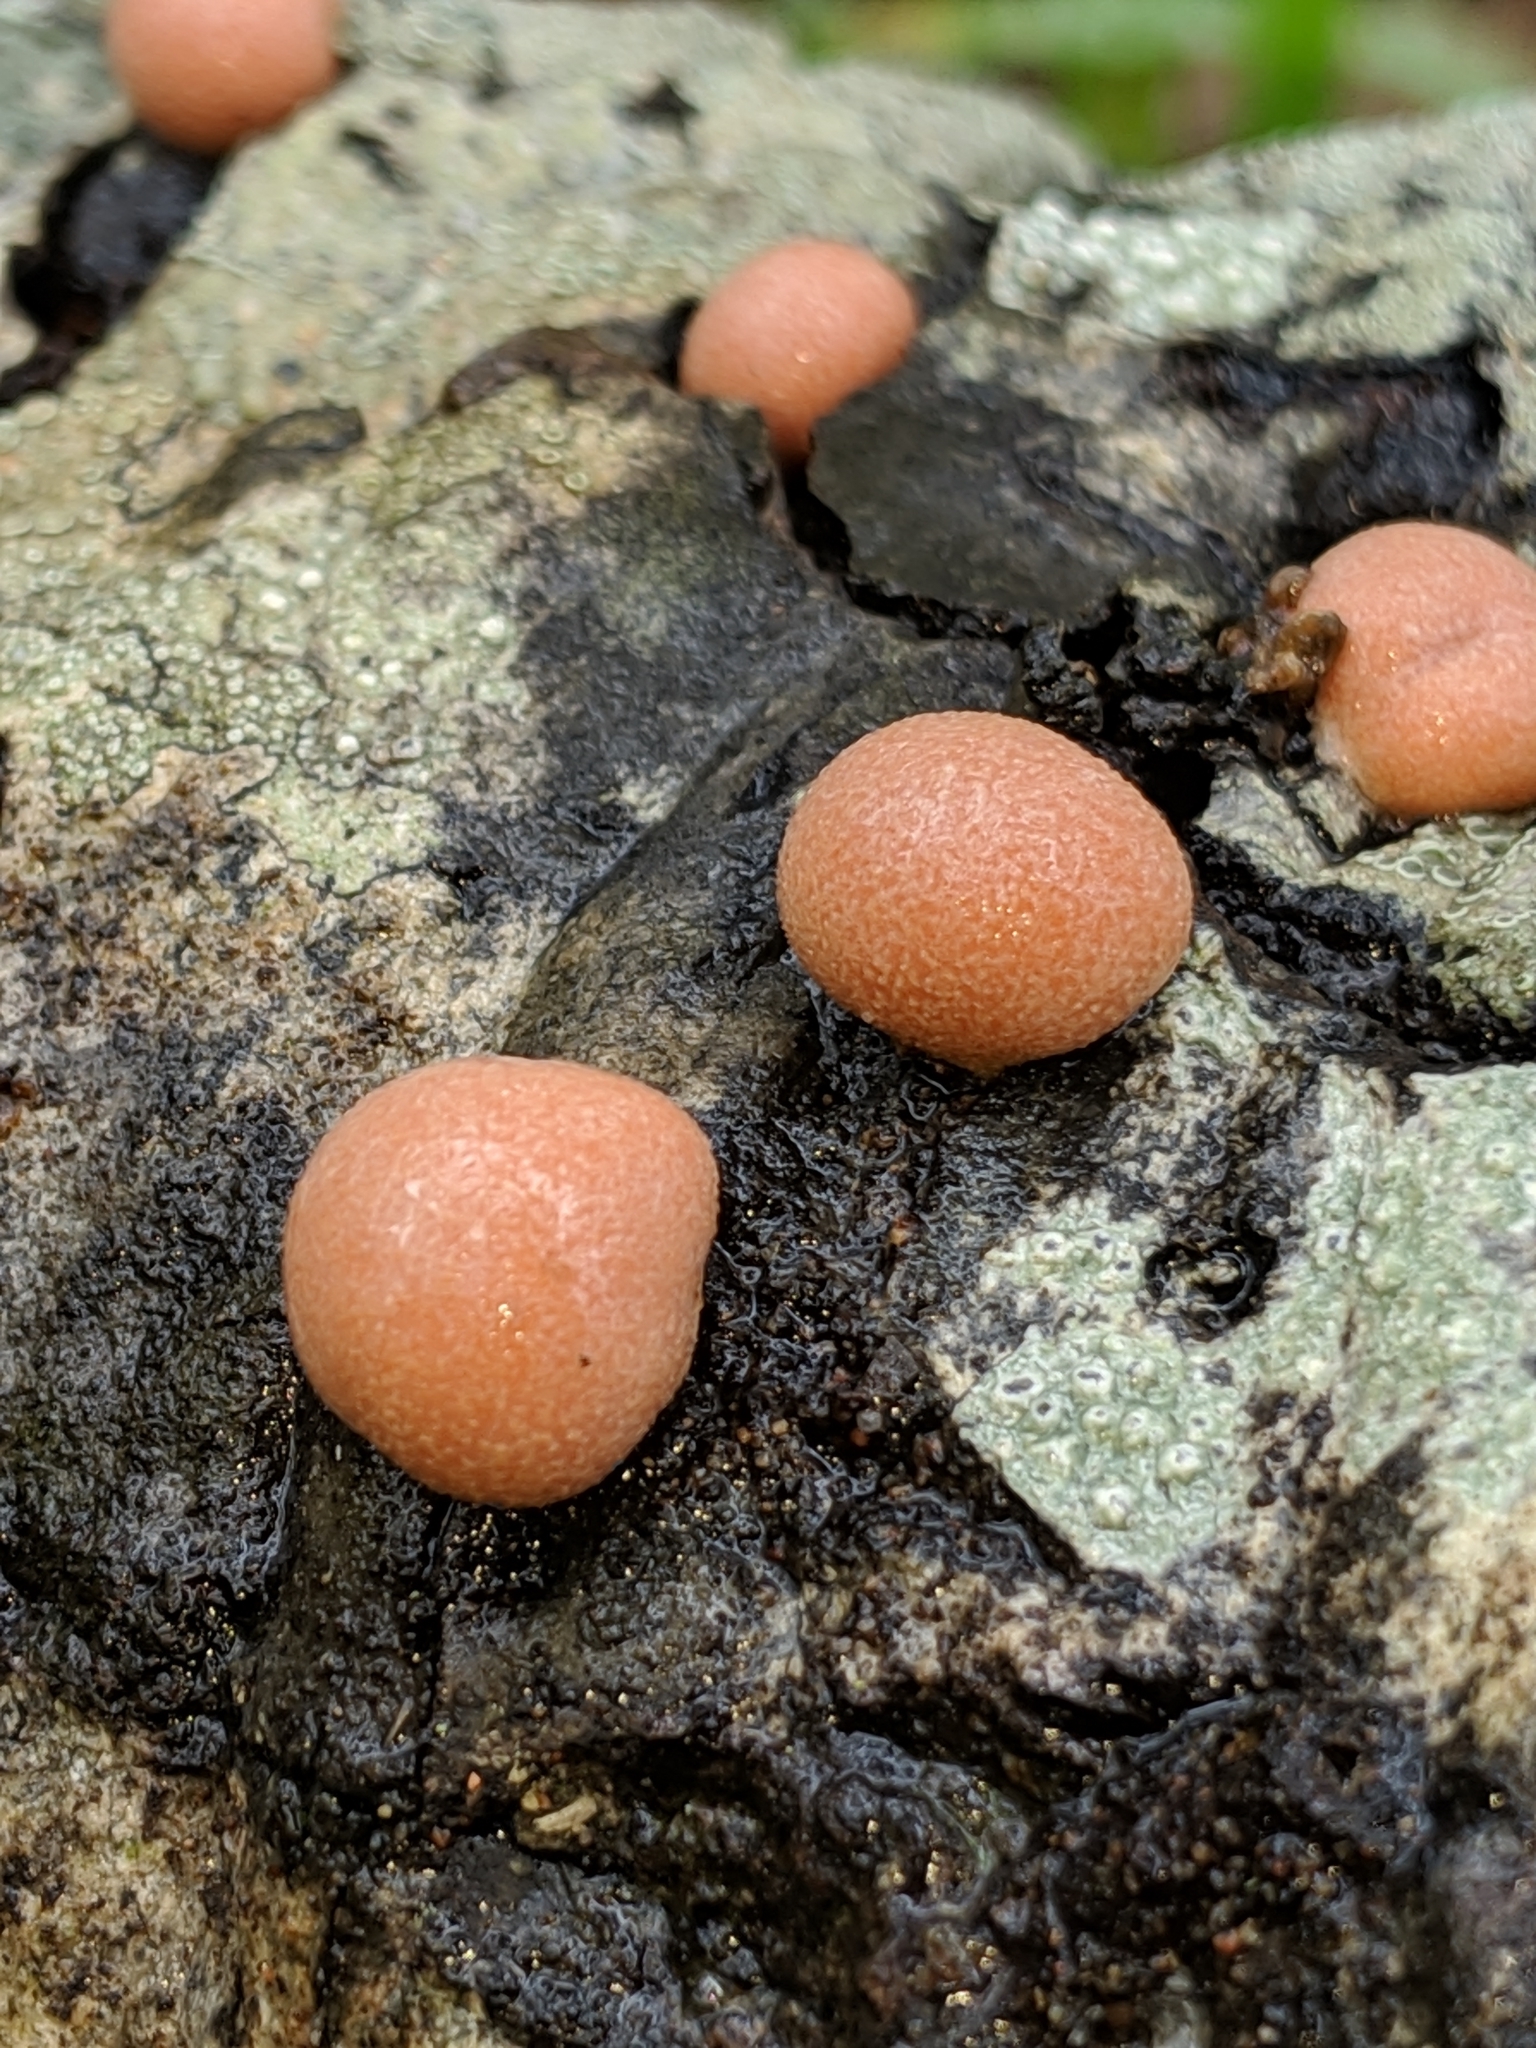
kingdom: Protozoa
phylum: Mycetozoa
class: Myxomycetes
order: Cribrariales
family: Tubiferaceae
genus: Lycogala
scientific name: Lycogala epidendrum
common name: Wolf's milk
